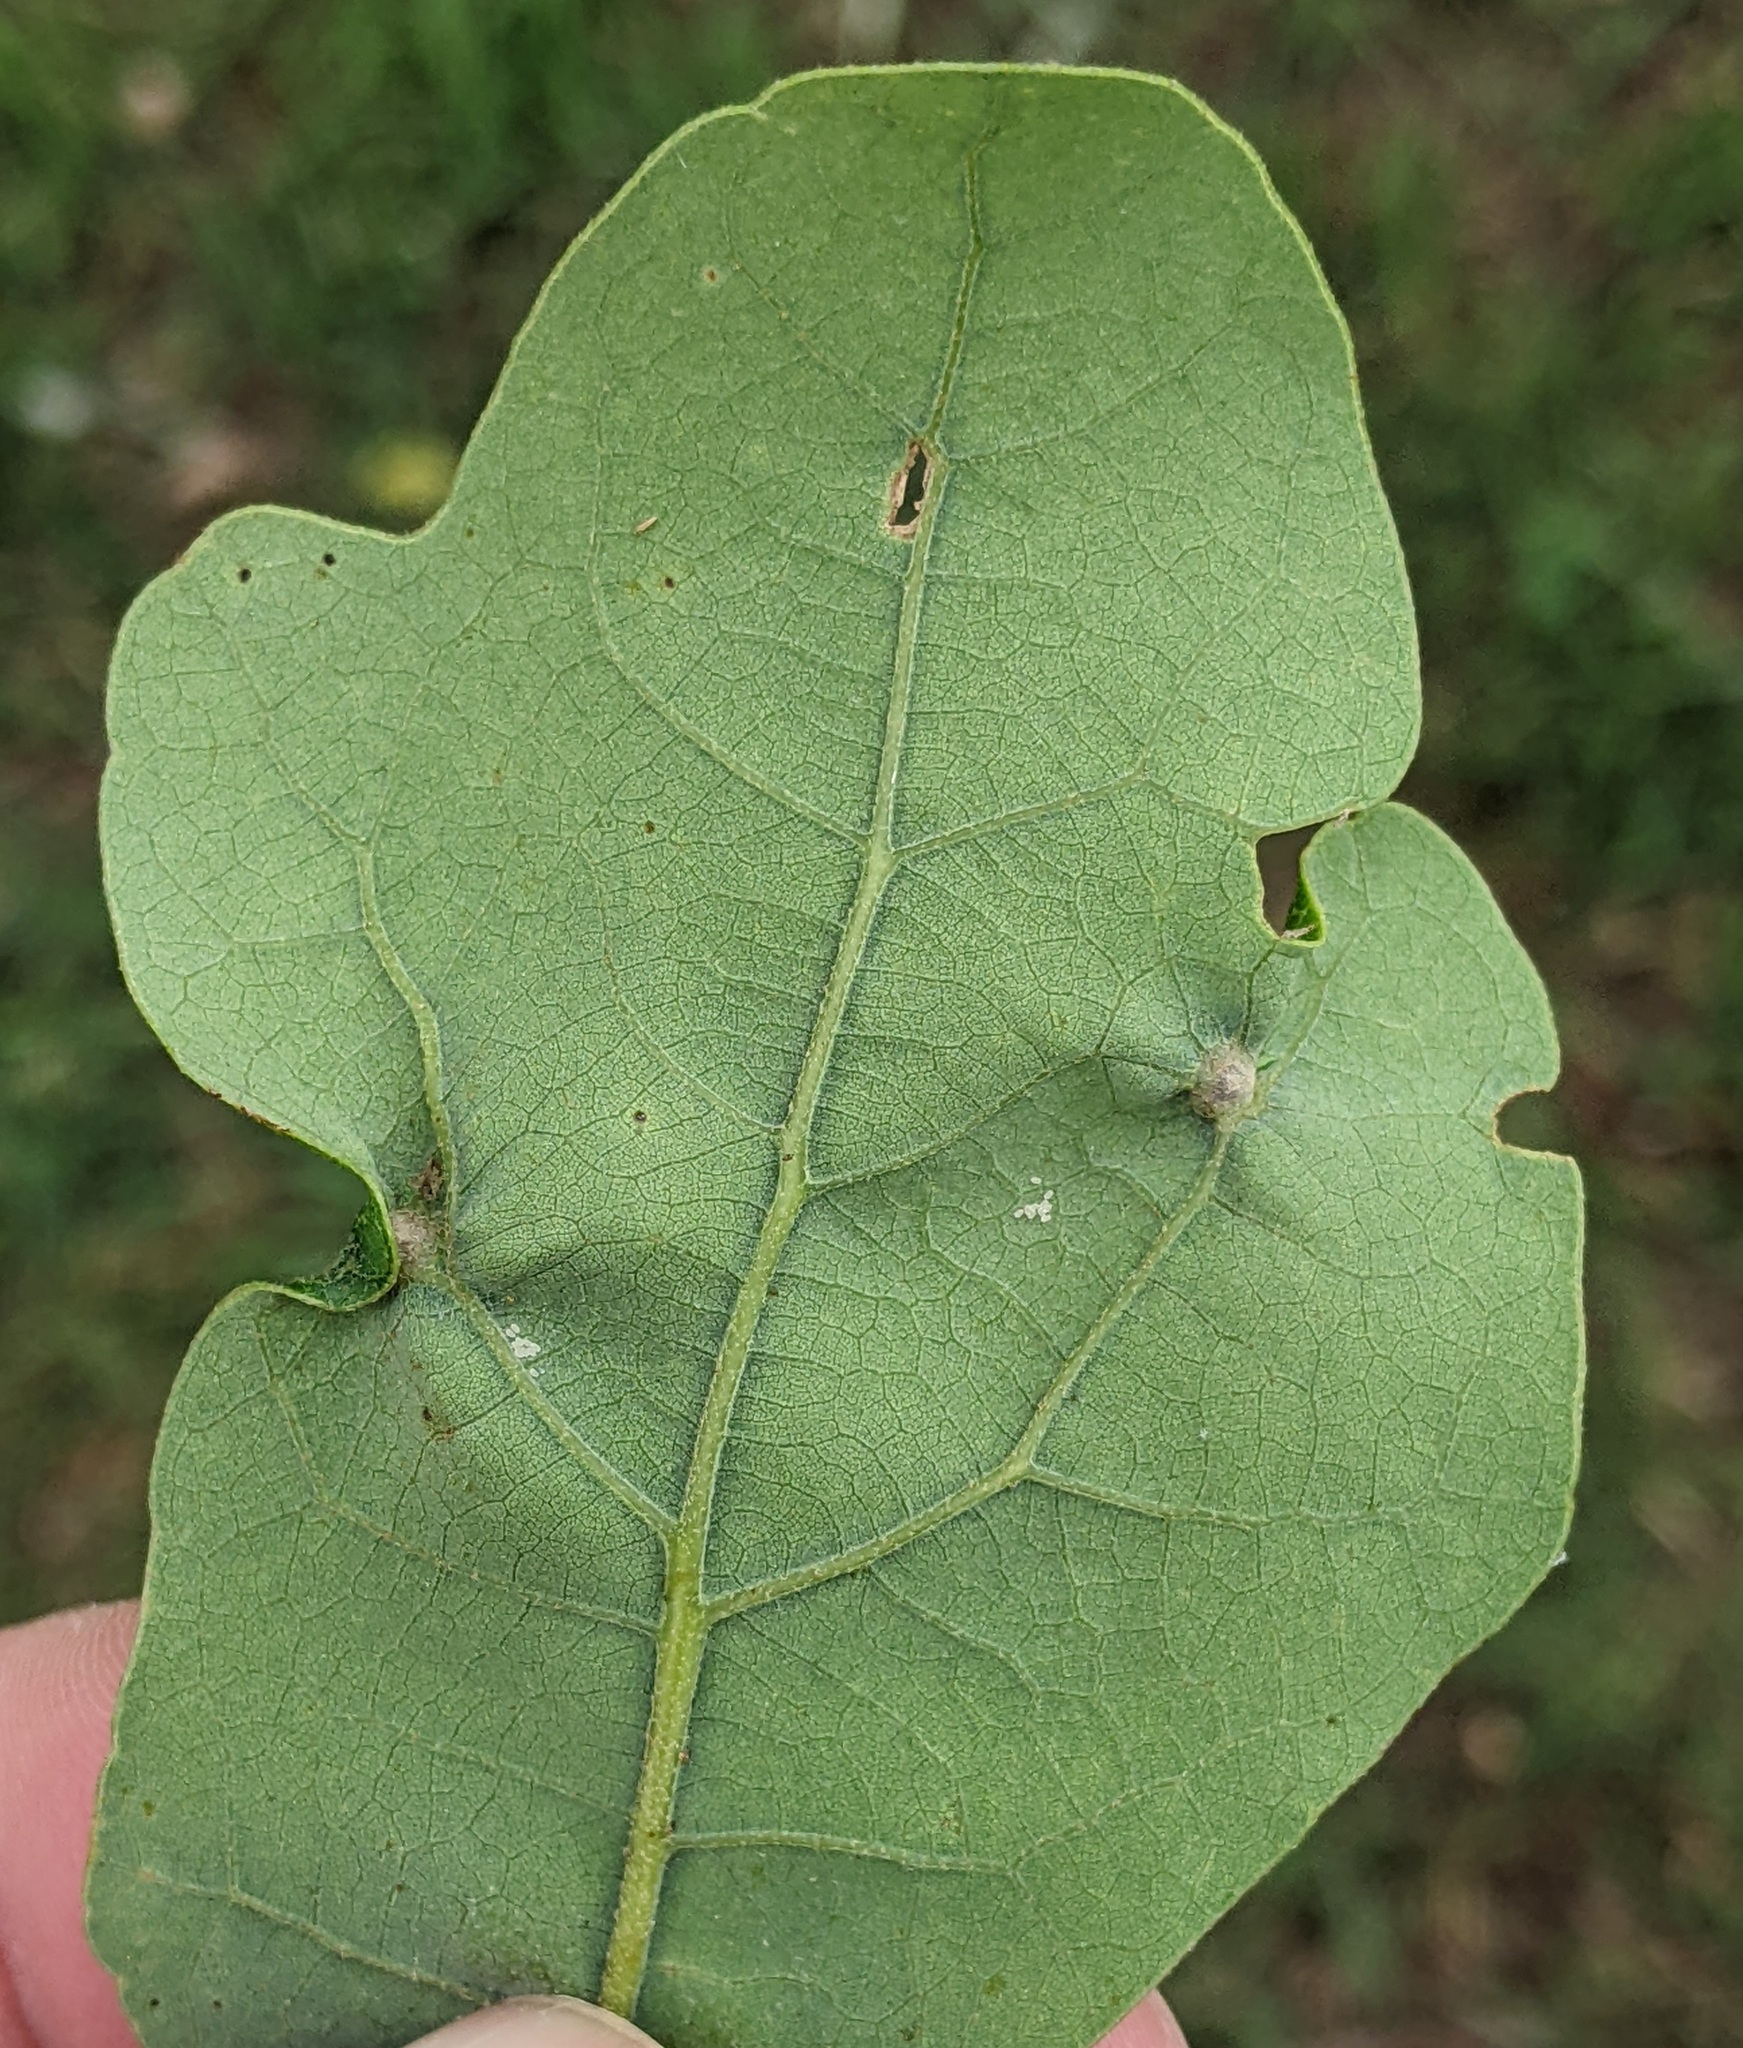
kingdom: Animalia
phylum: Arthropoda
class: Insecta
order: Hymenoptera
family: Cynipidae
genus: Andricus
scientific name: Andricus
